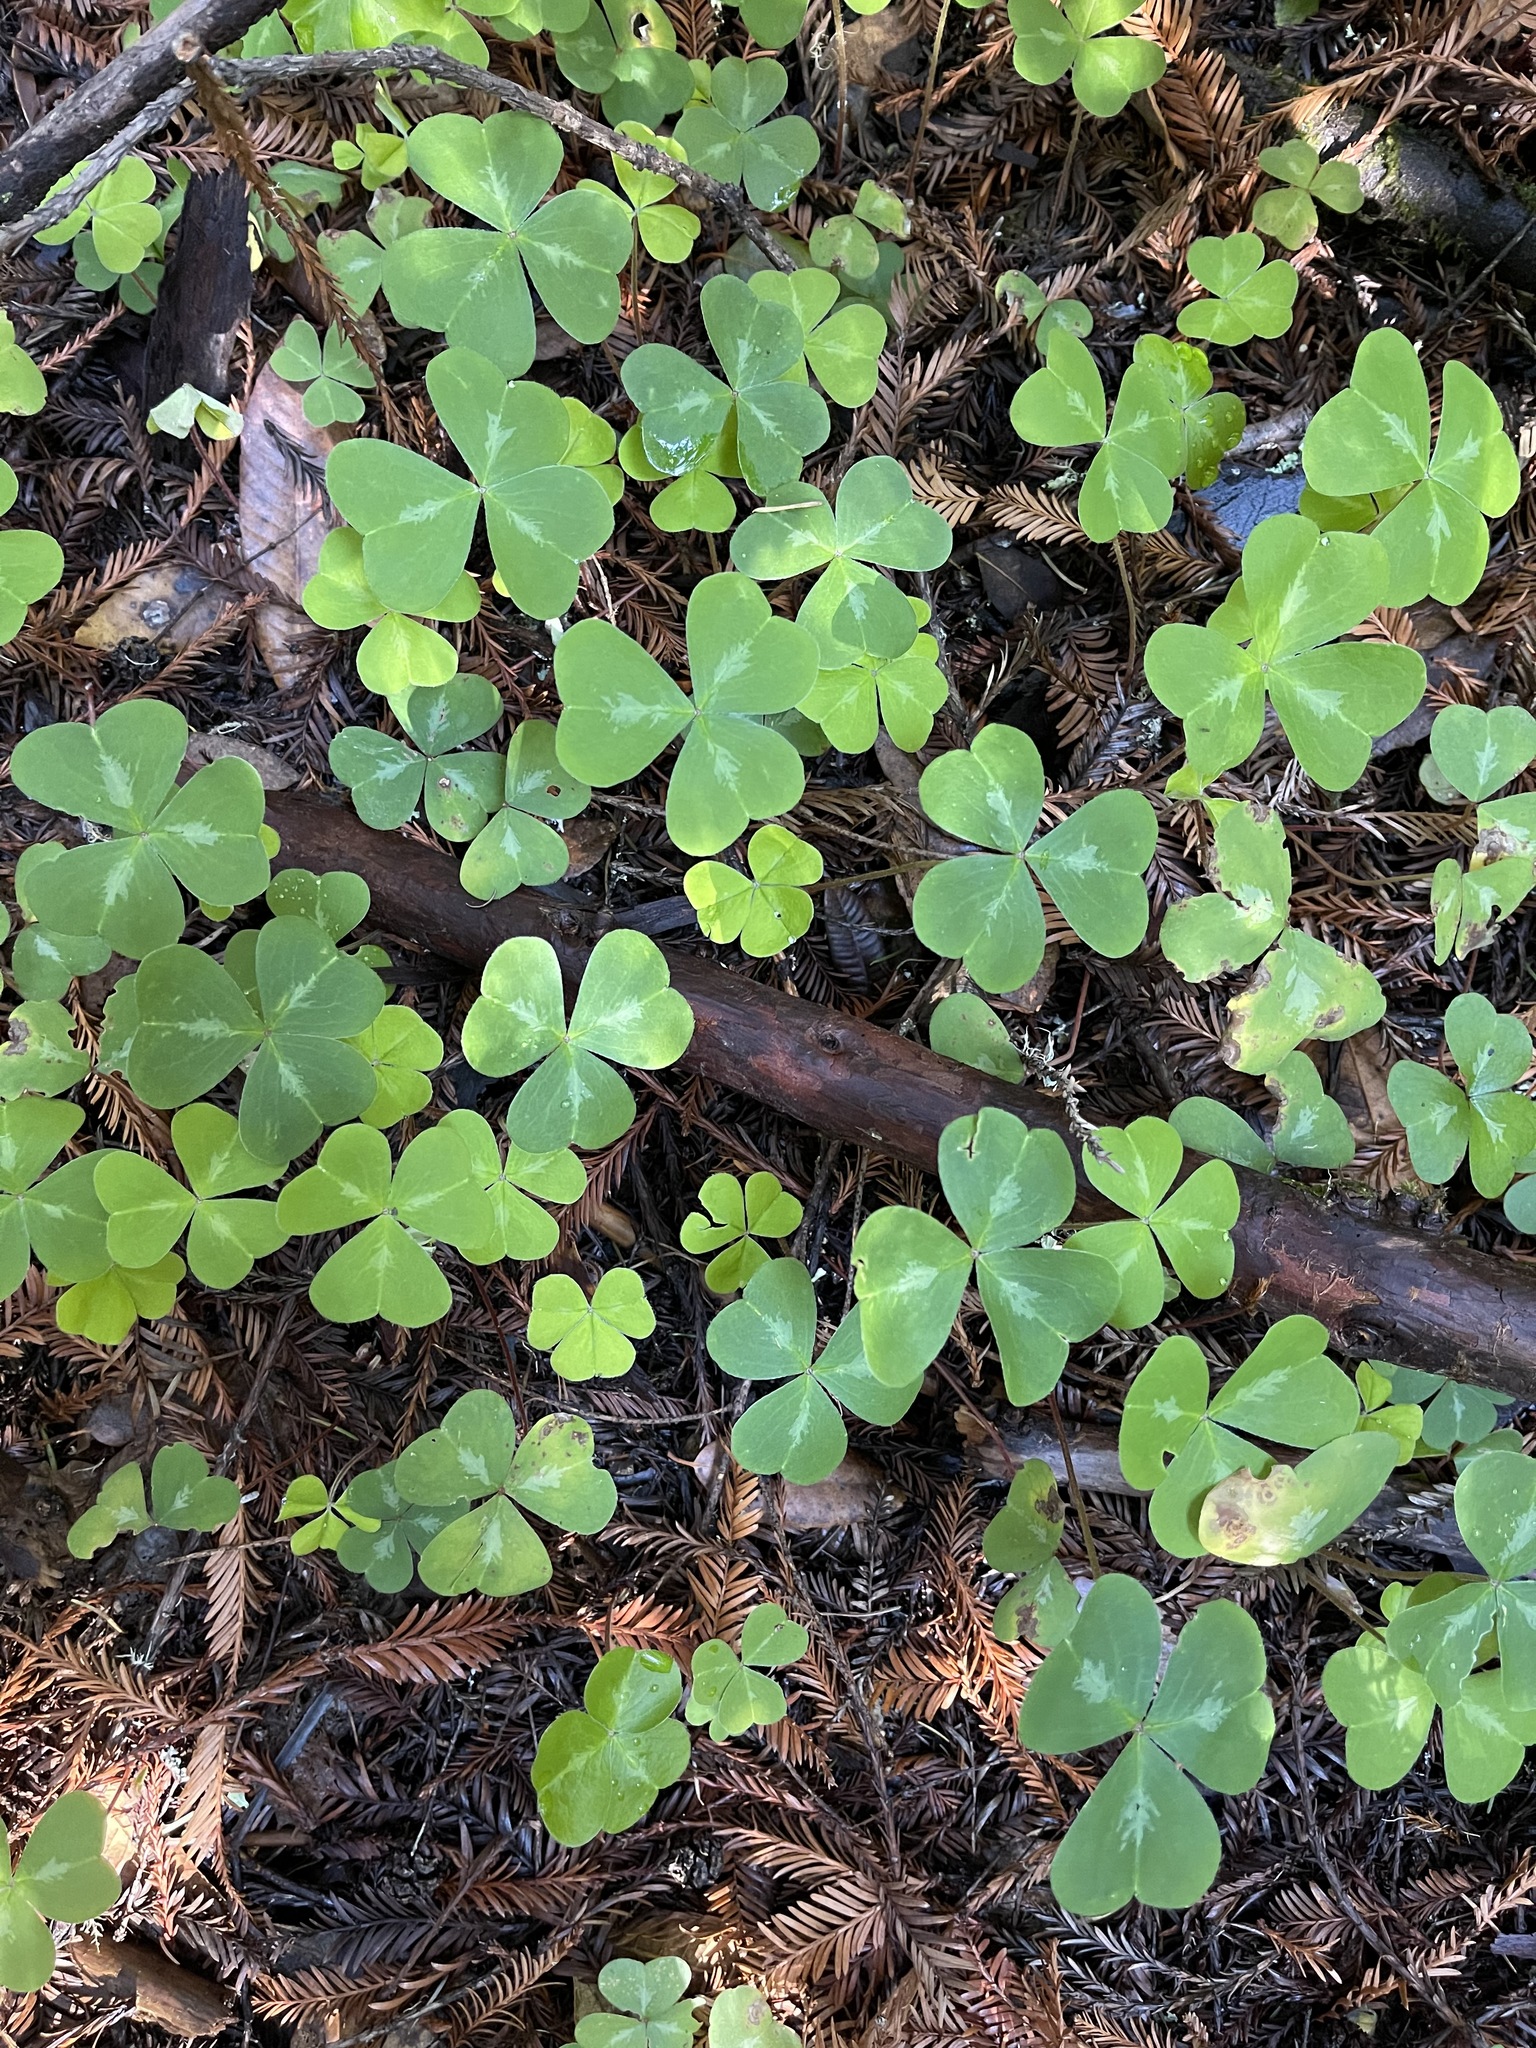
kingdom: Plantae
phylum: Tracheophyta
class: Magnoliopsida
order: Oxalidales
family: Oxalidaceae
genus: Oxalis
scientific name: Oxalis oregana
